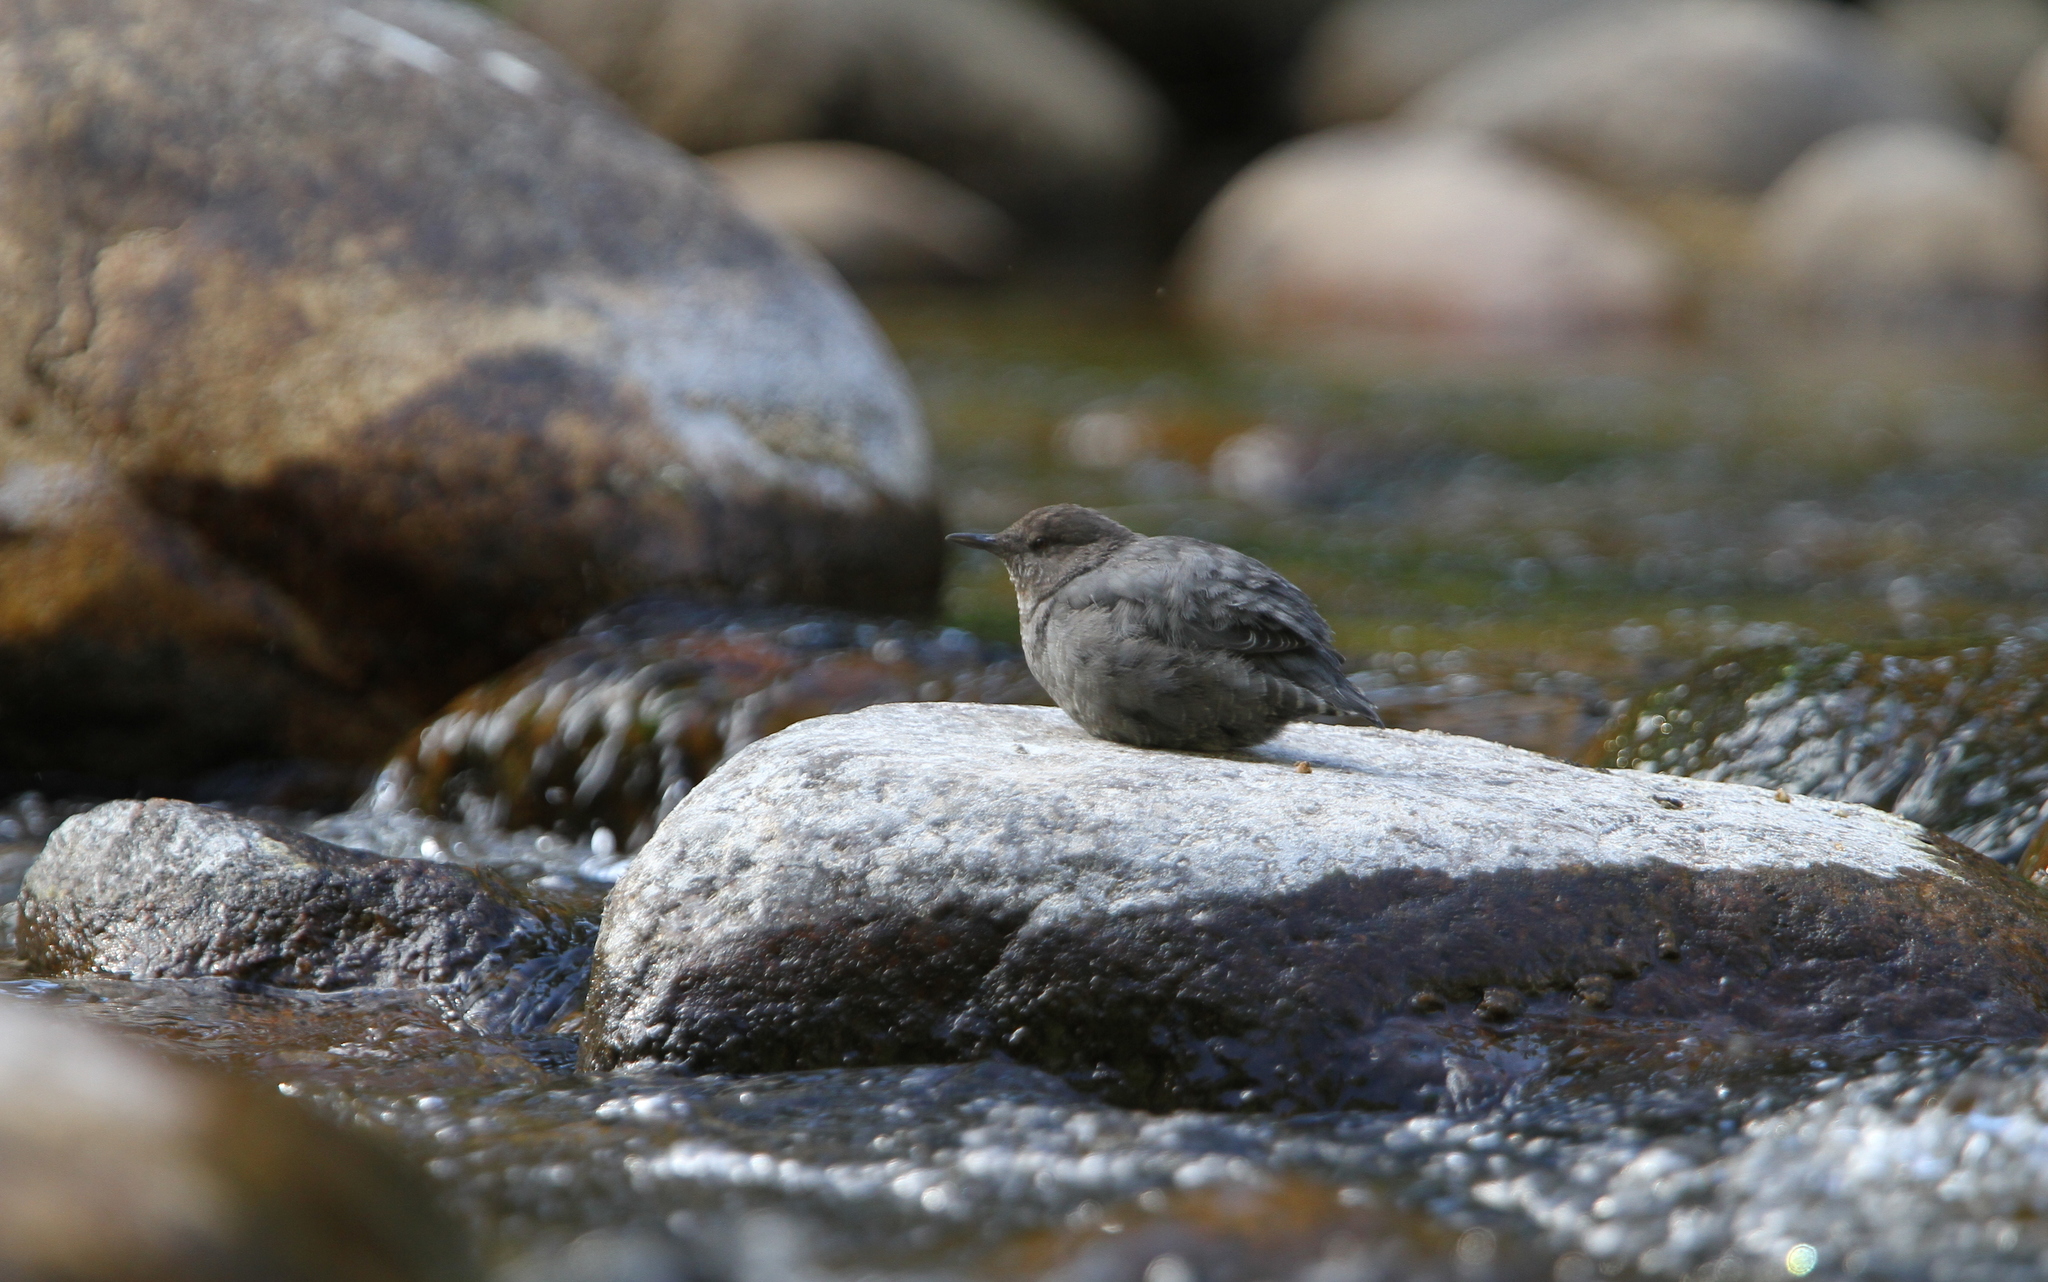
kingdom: Animalia
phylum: Chordata
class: Aves
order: Passeriformes
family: Cinclidae
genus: Cinclus
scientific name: Cinclus mexicanus
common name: American dipper
